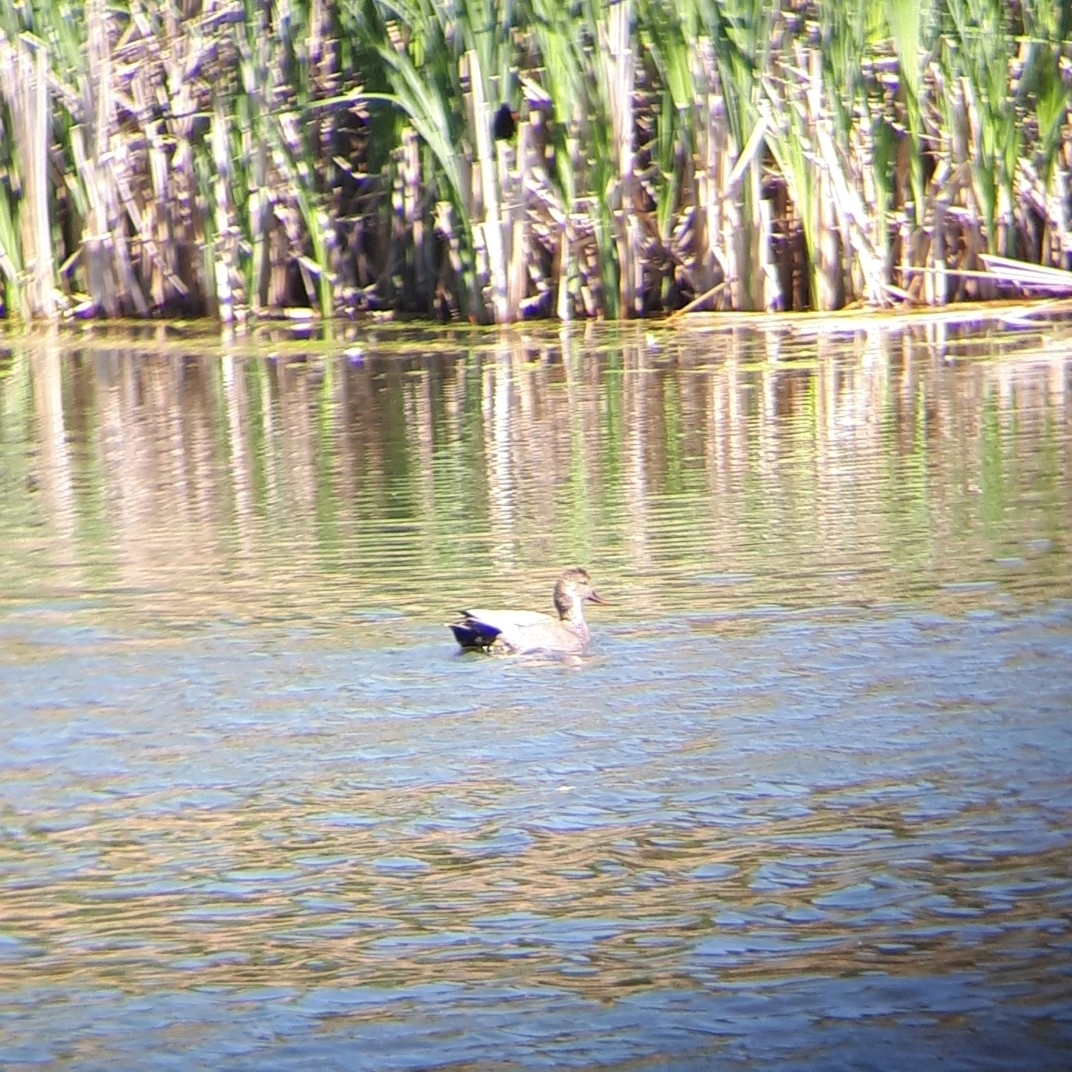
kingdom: Animalia
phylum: Chordata
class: Aves
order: Anseriformes
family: Anatidae
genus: Mareca
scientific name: Mareca strepera
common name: Gadwall
